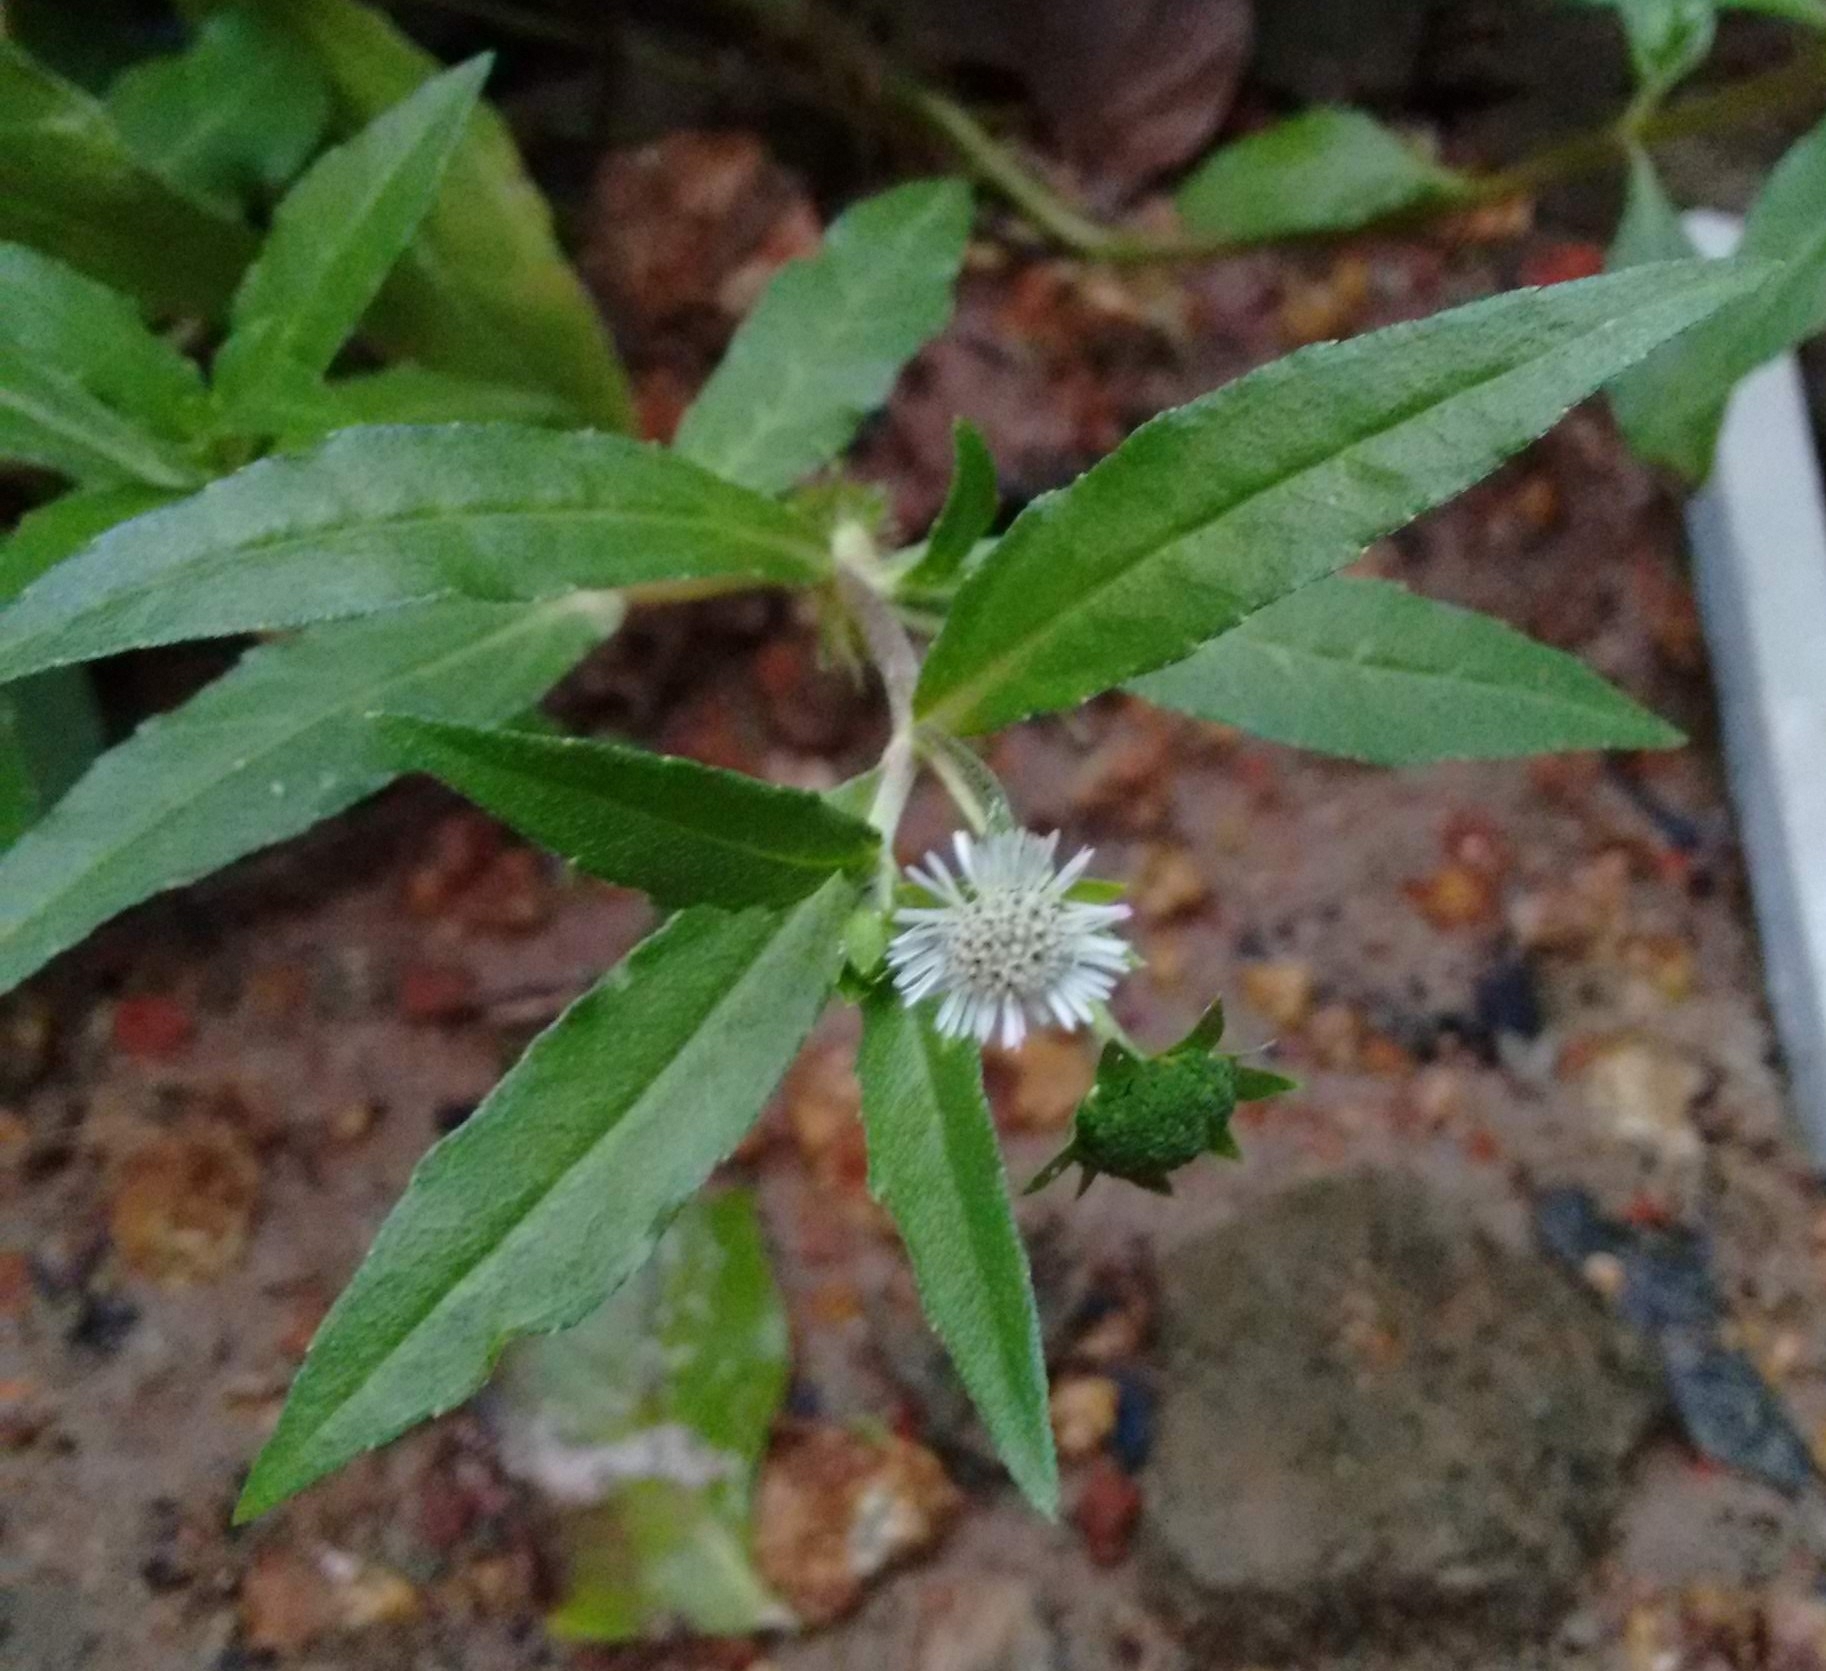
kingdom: Plantae
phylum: Tracheophyta
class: Magnoliopsida
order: Asterales
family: Asteraceae
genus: Eclipta
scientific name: Eclipta prostrata
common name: False daisy
